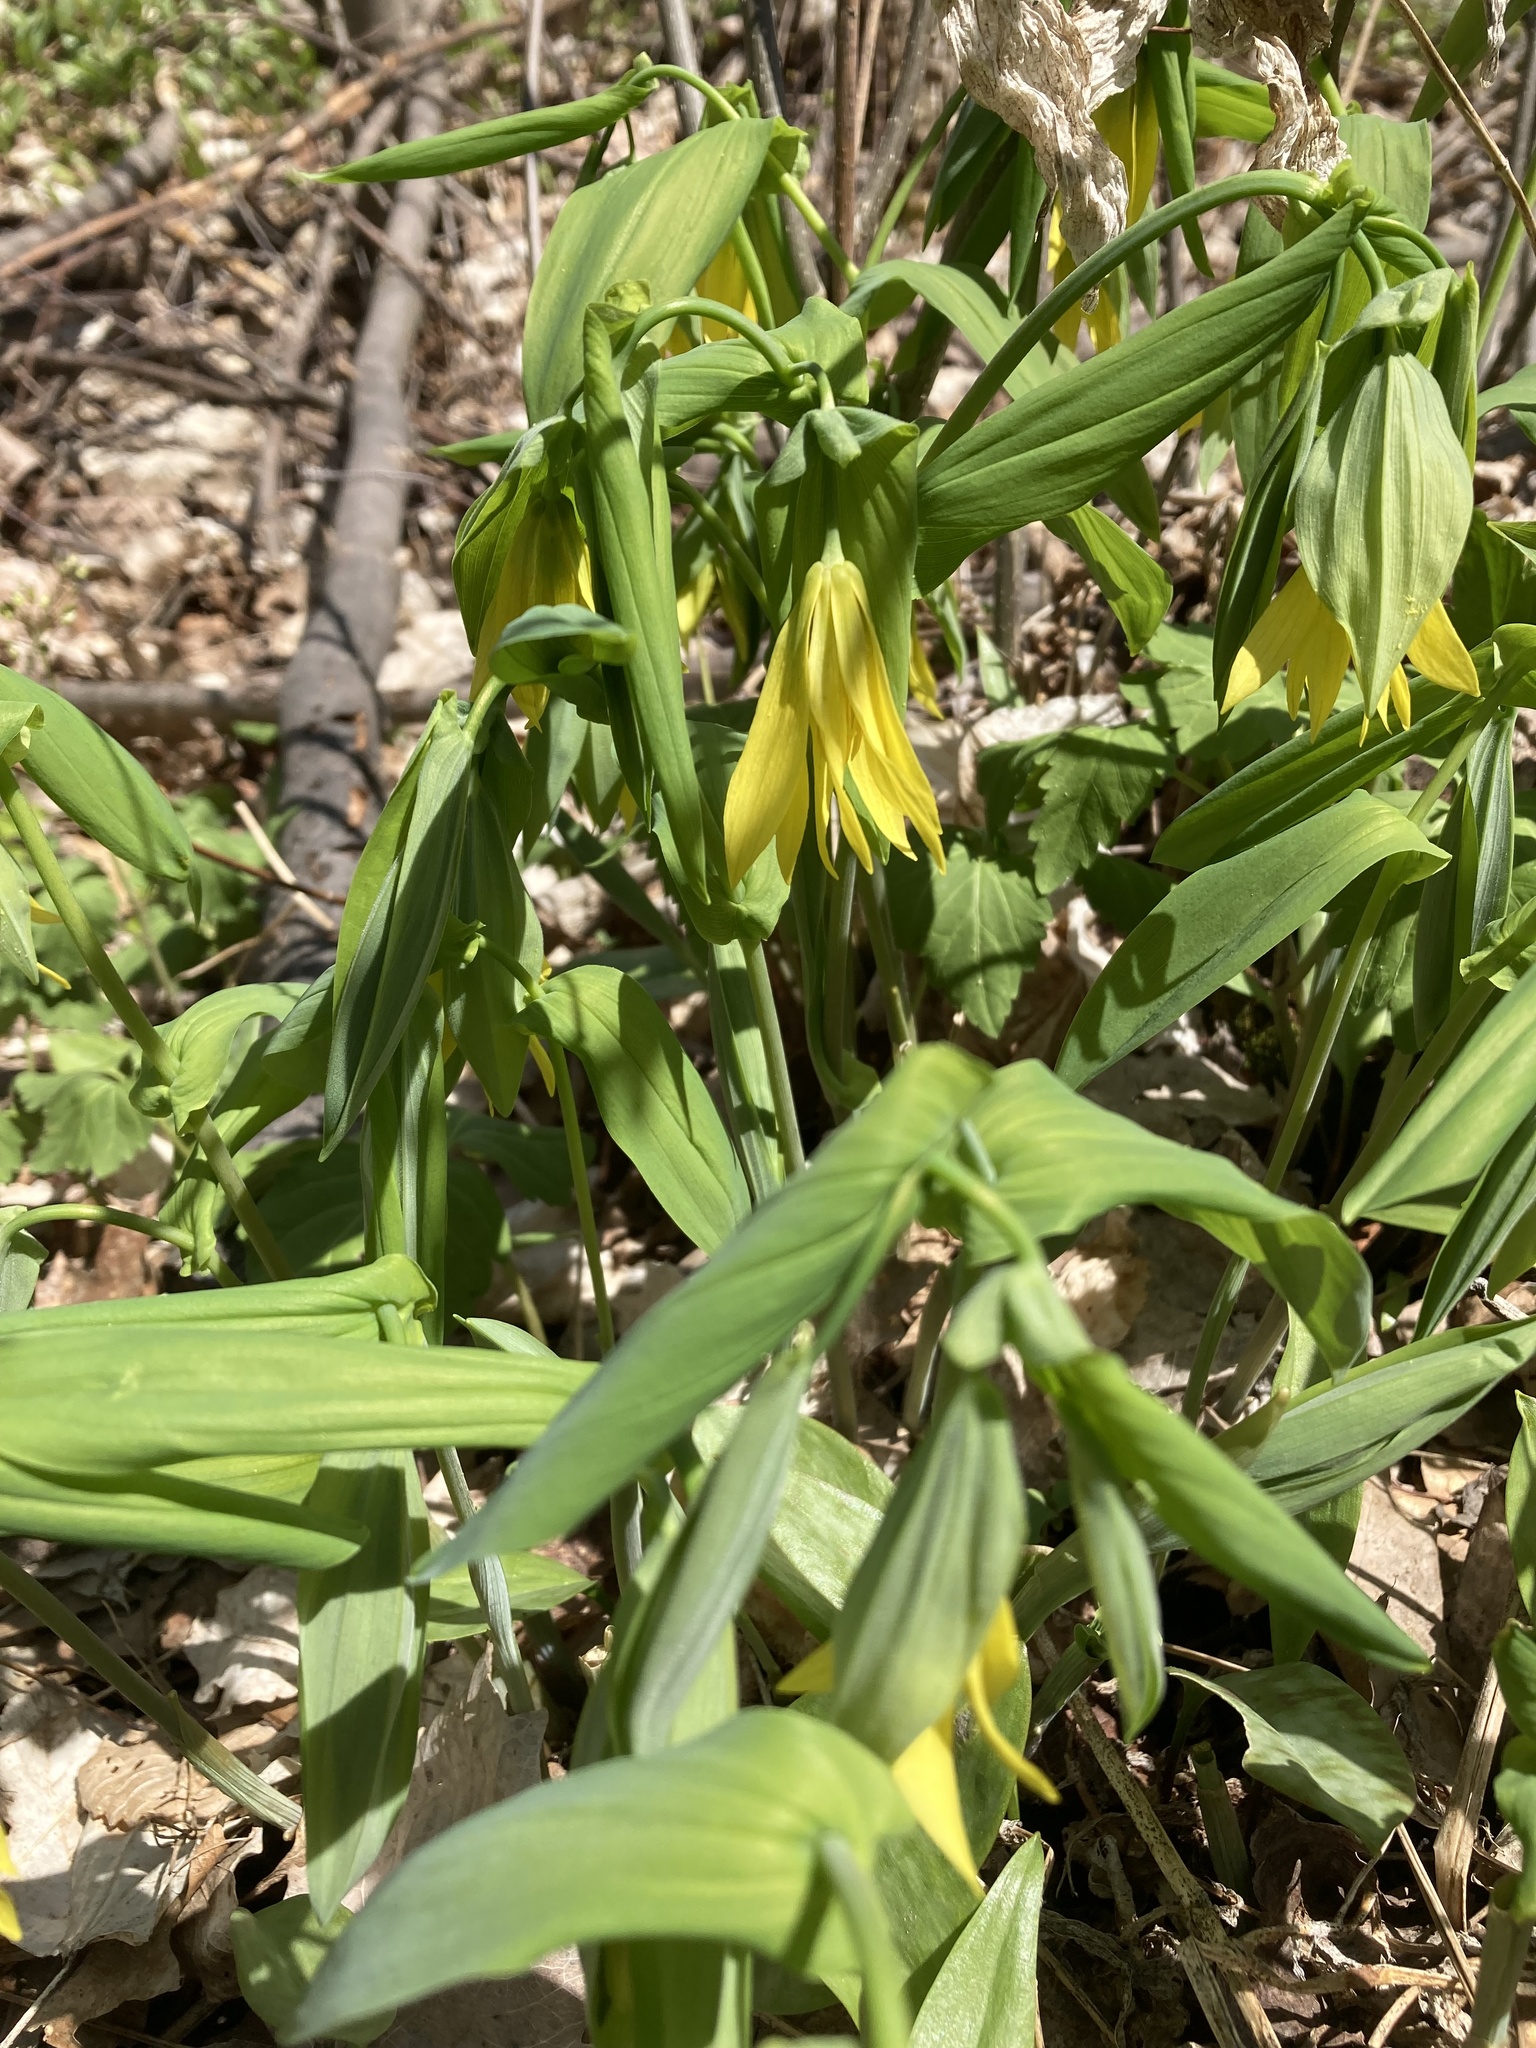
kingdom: Plantae
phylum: Tracheophyta
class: Liliopsida
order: Liliales
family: Colchicaceae
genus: Uvularia
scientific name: Uvularia grandiflora
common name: Bellwort
